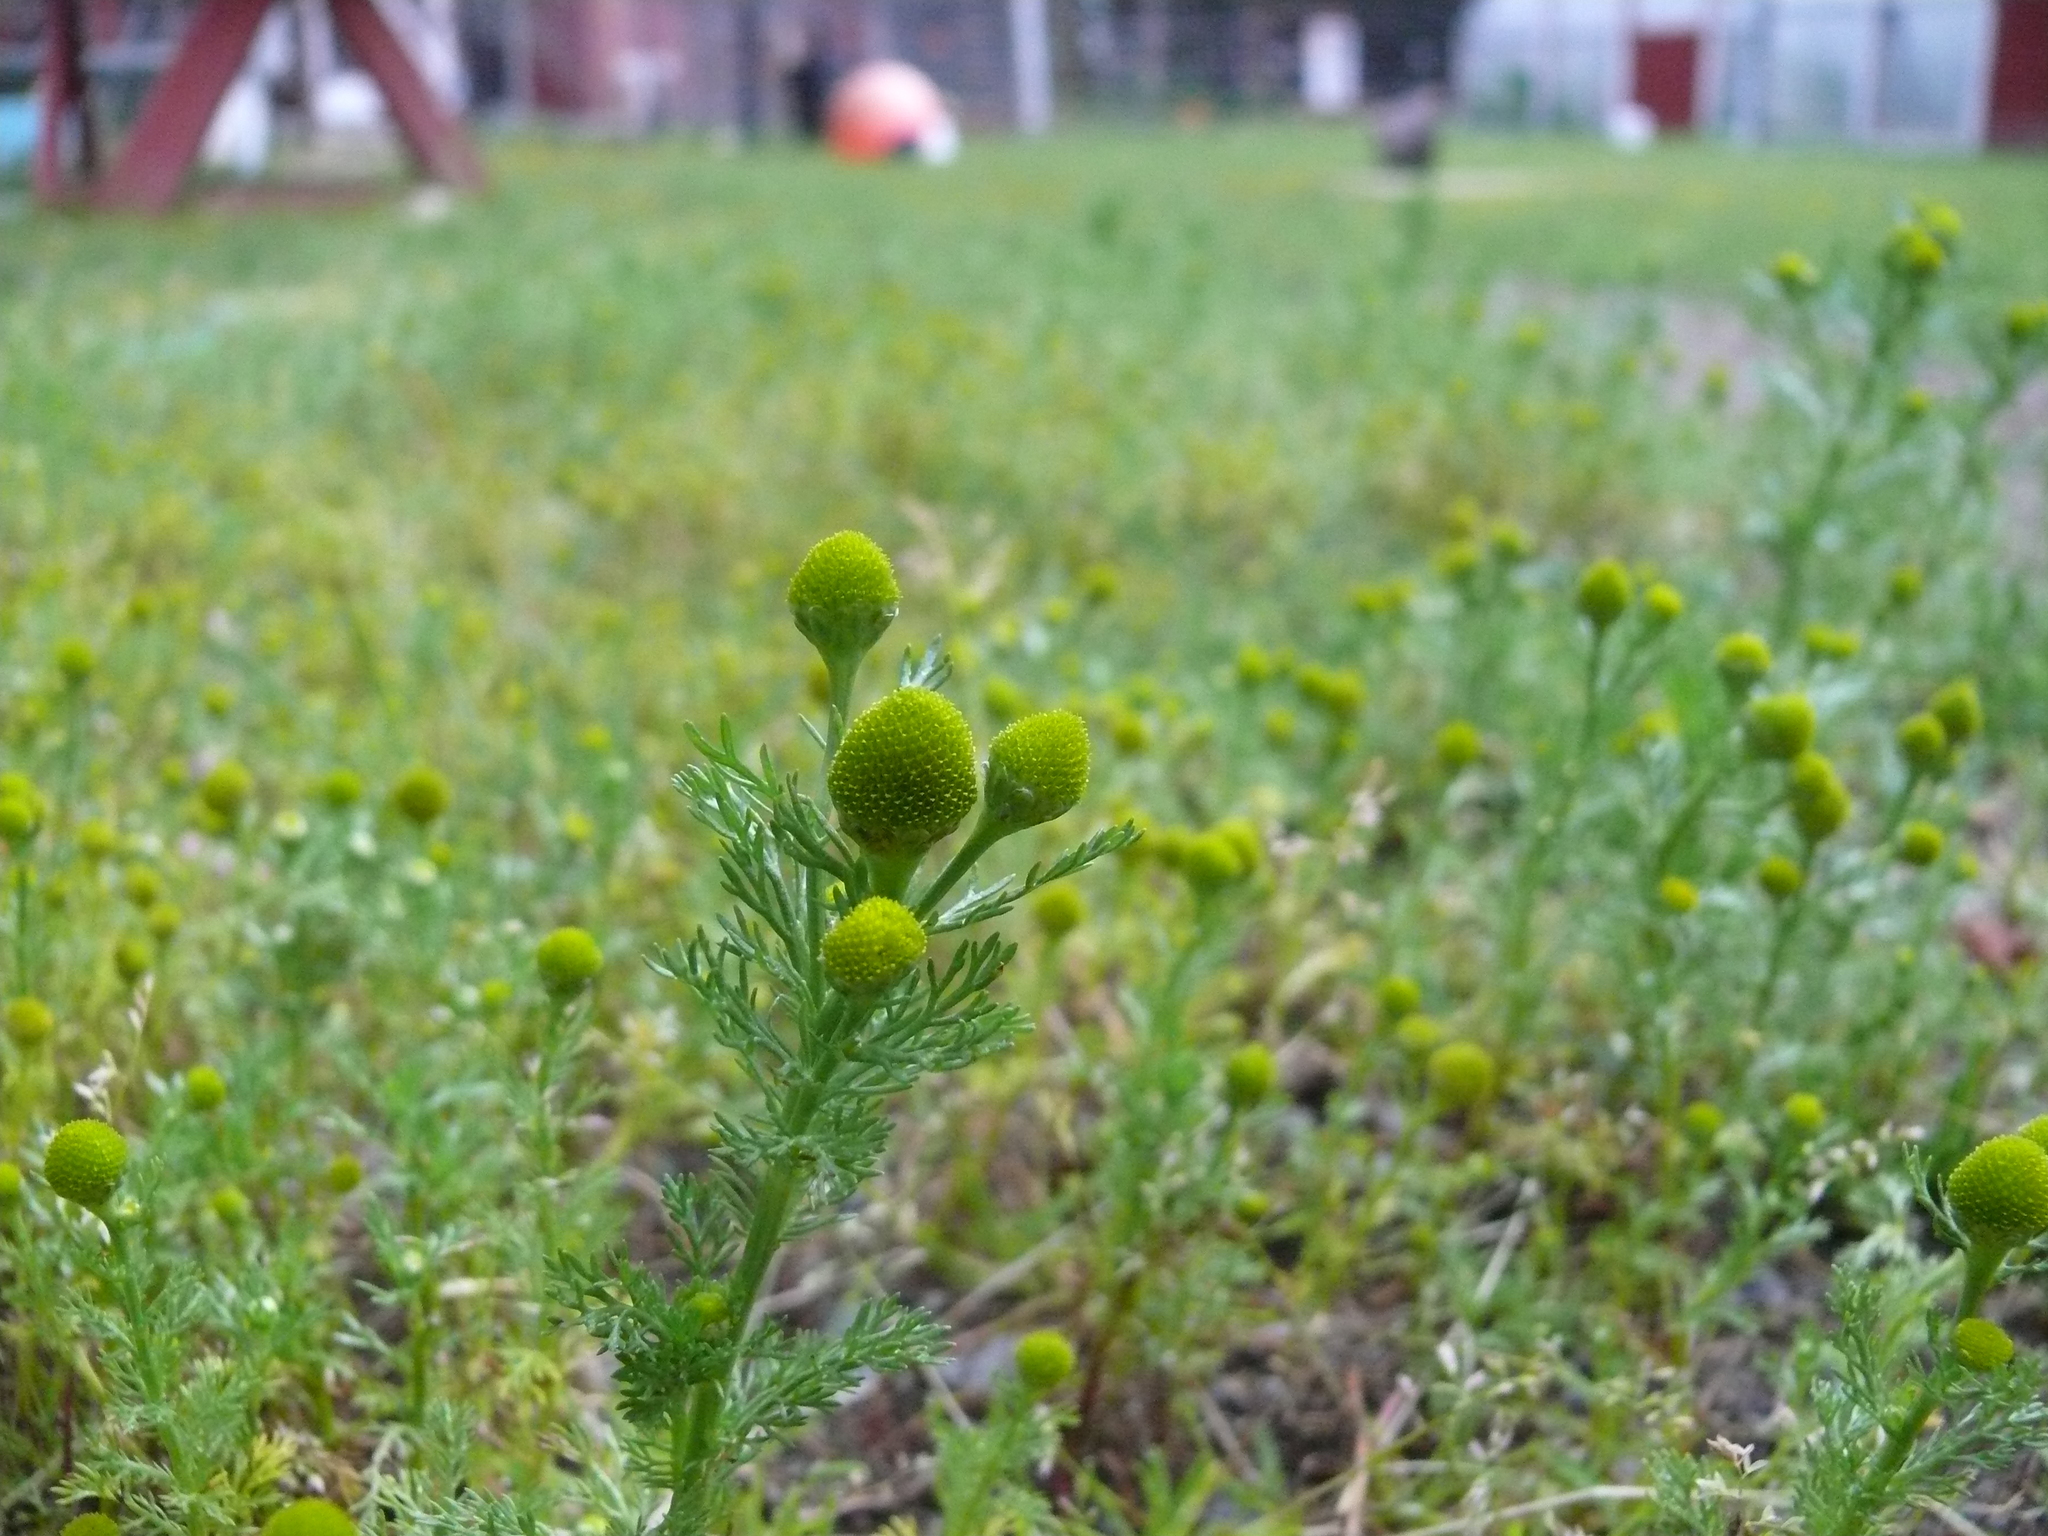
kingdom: Plantae
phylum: Tracheophyta
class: Magnoliopsida
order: Asterales
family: Asteraceae
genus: Matricaria
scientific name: Matricaria discoidea
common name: Disc mayweed
